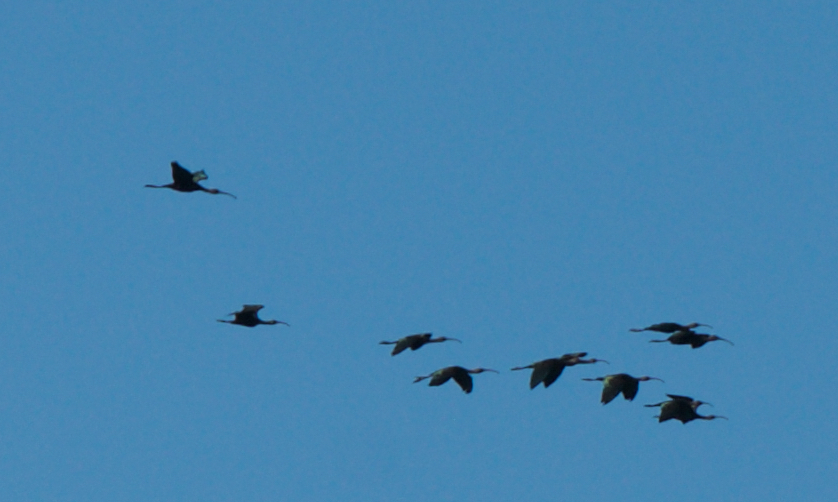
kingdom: Animalia
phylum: Chordata
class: Aves
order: Pelecaniformes
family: Threskiornithidae
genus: Plegadis
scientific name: Plegadis chihi
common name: White-faced ibis
